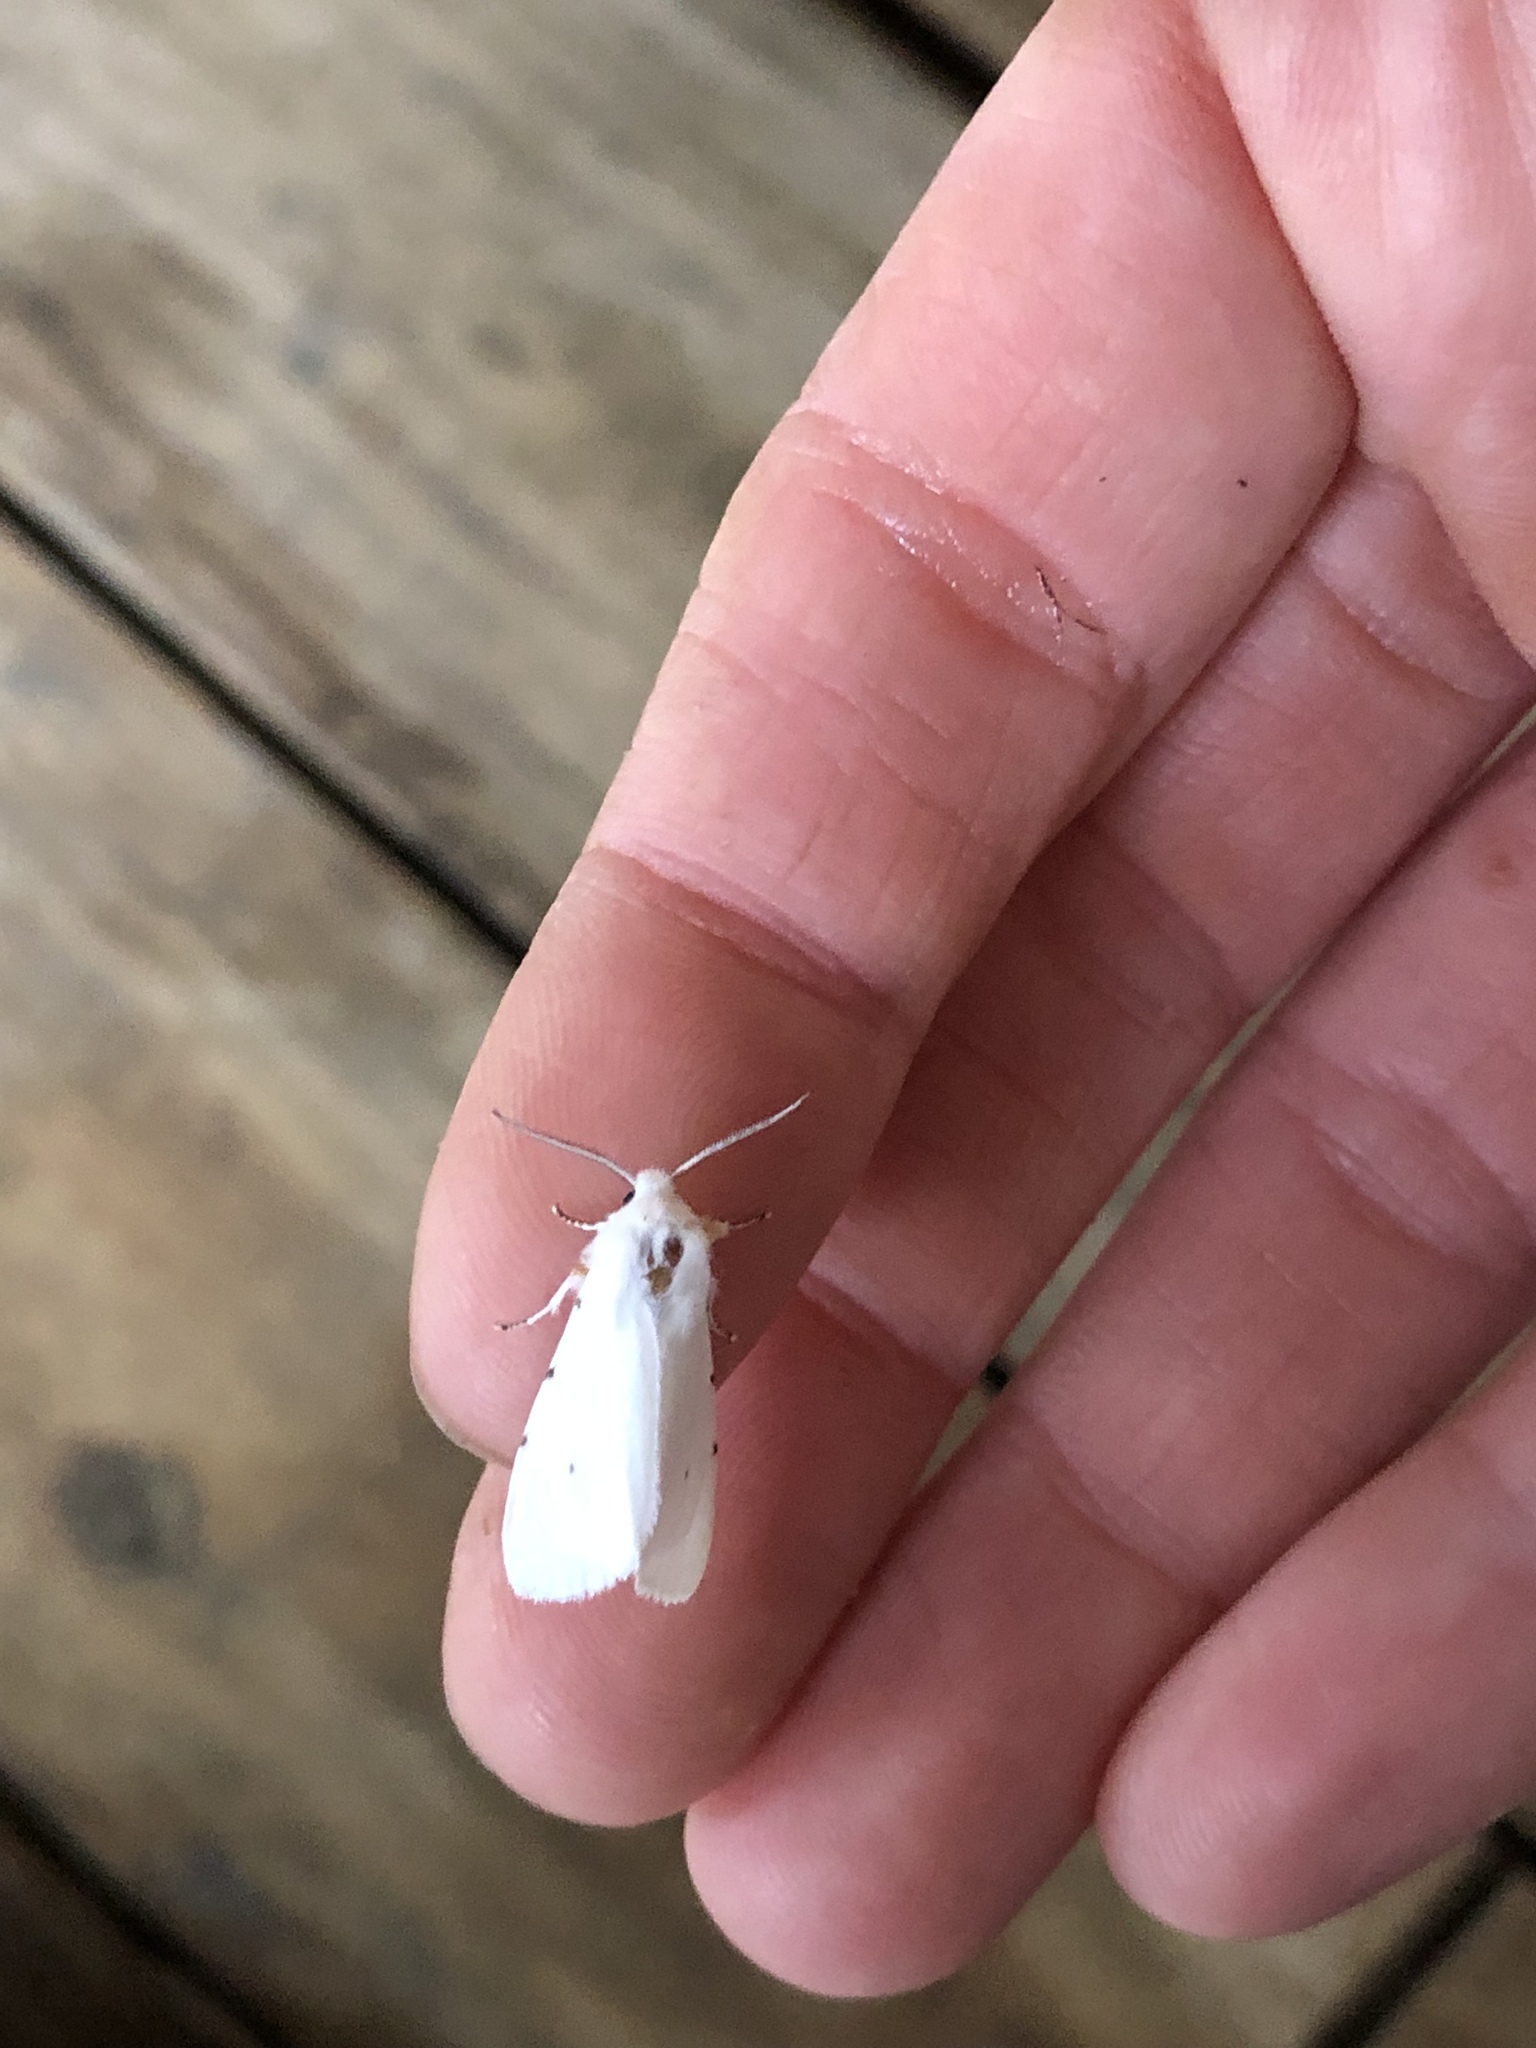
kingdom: Animalia
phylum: Arthropoda
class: Insecta
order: Lepidoptera
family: Erebidae
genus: Hyphantria
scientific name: Hyphantria cunea
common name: American white moth
